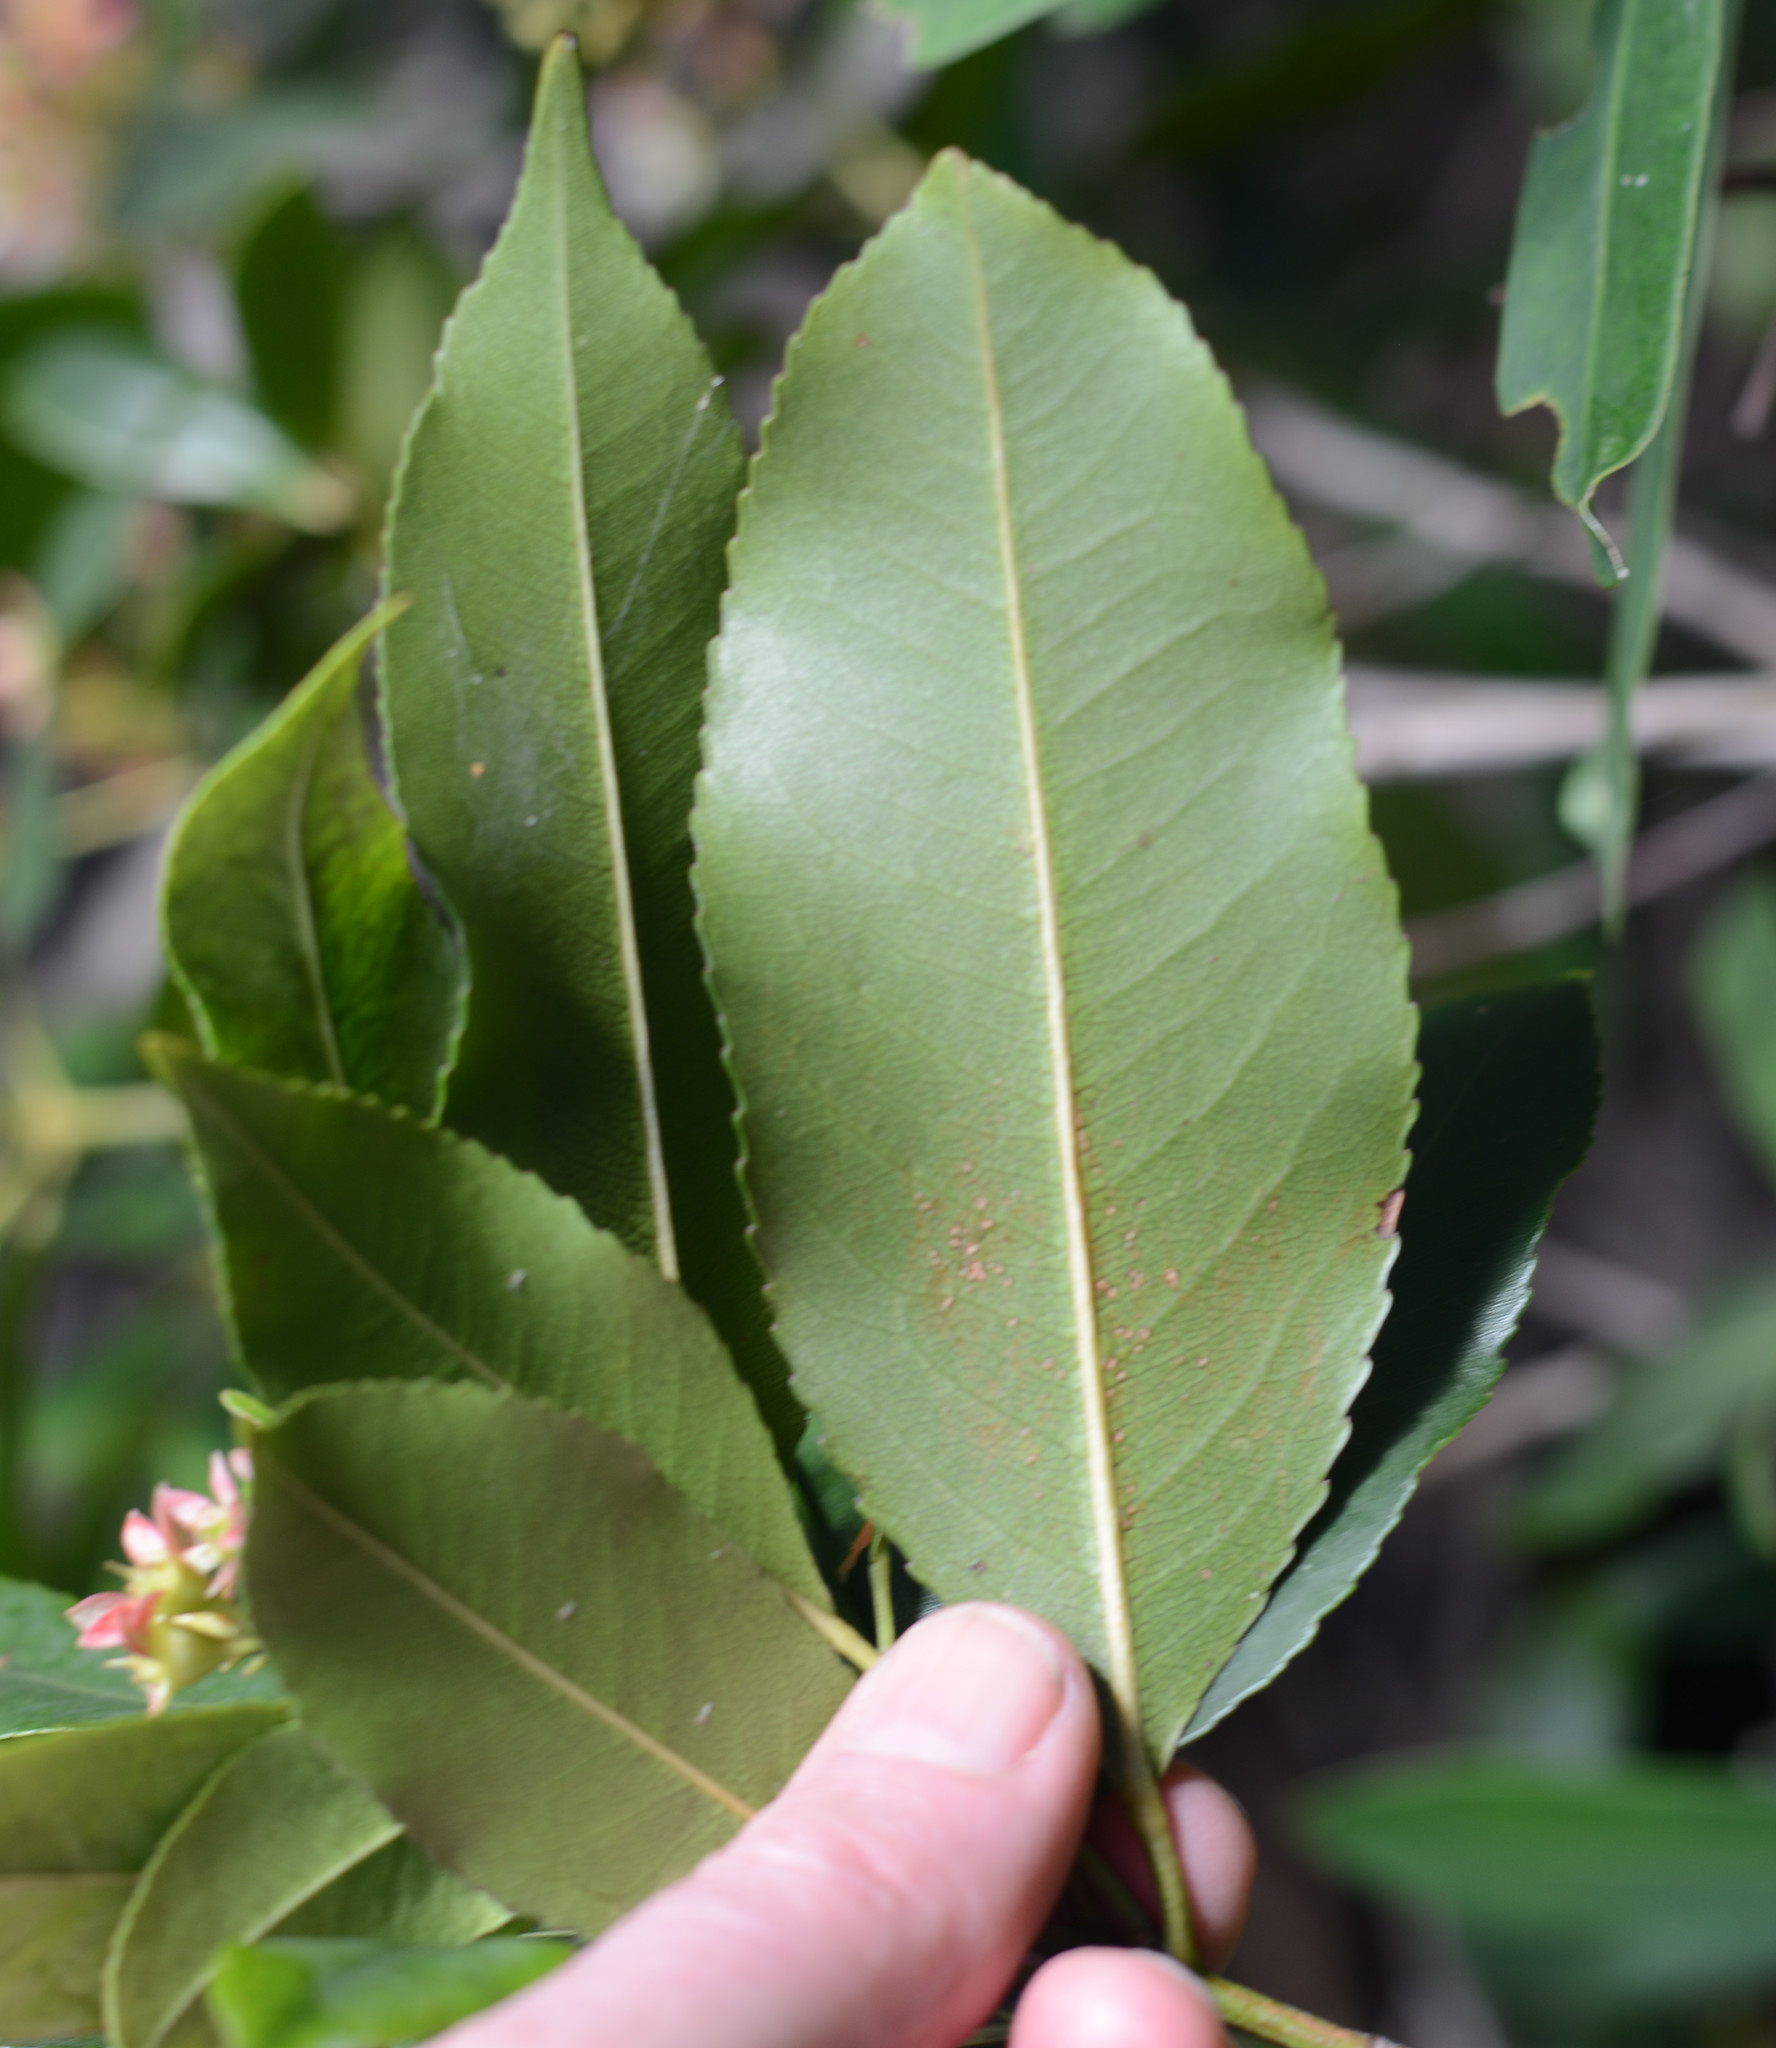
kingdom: Plantae
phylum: Tracheophyta
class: Magnoliopsida
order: Oxalidales
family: Cunoniaceae
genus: Ceratopetalum
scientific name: Ceratopetalum apetalum
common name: Scented satinwood
